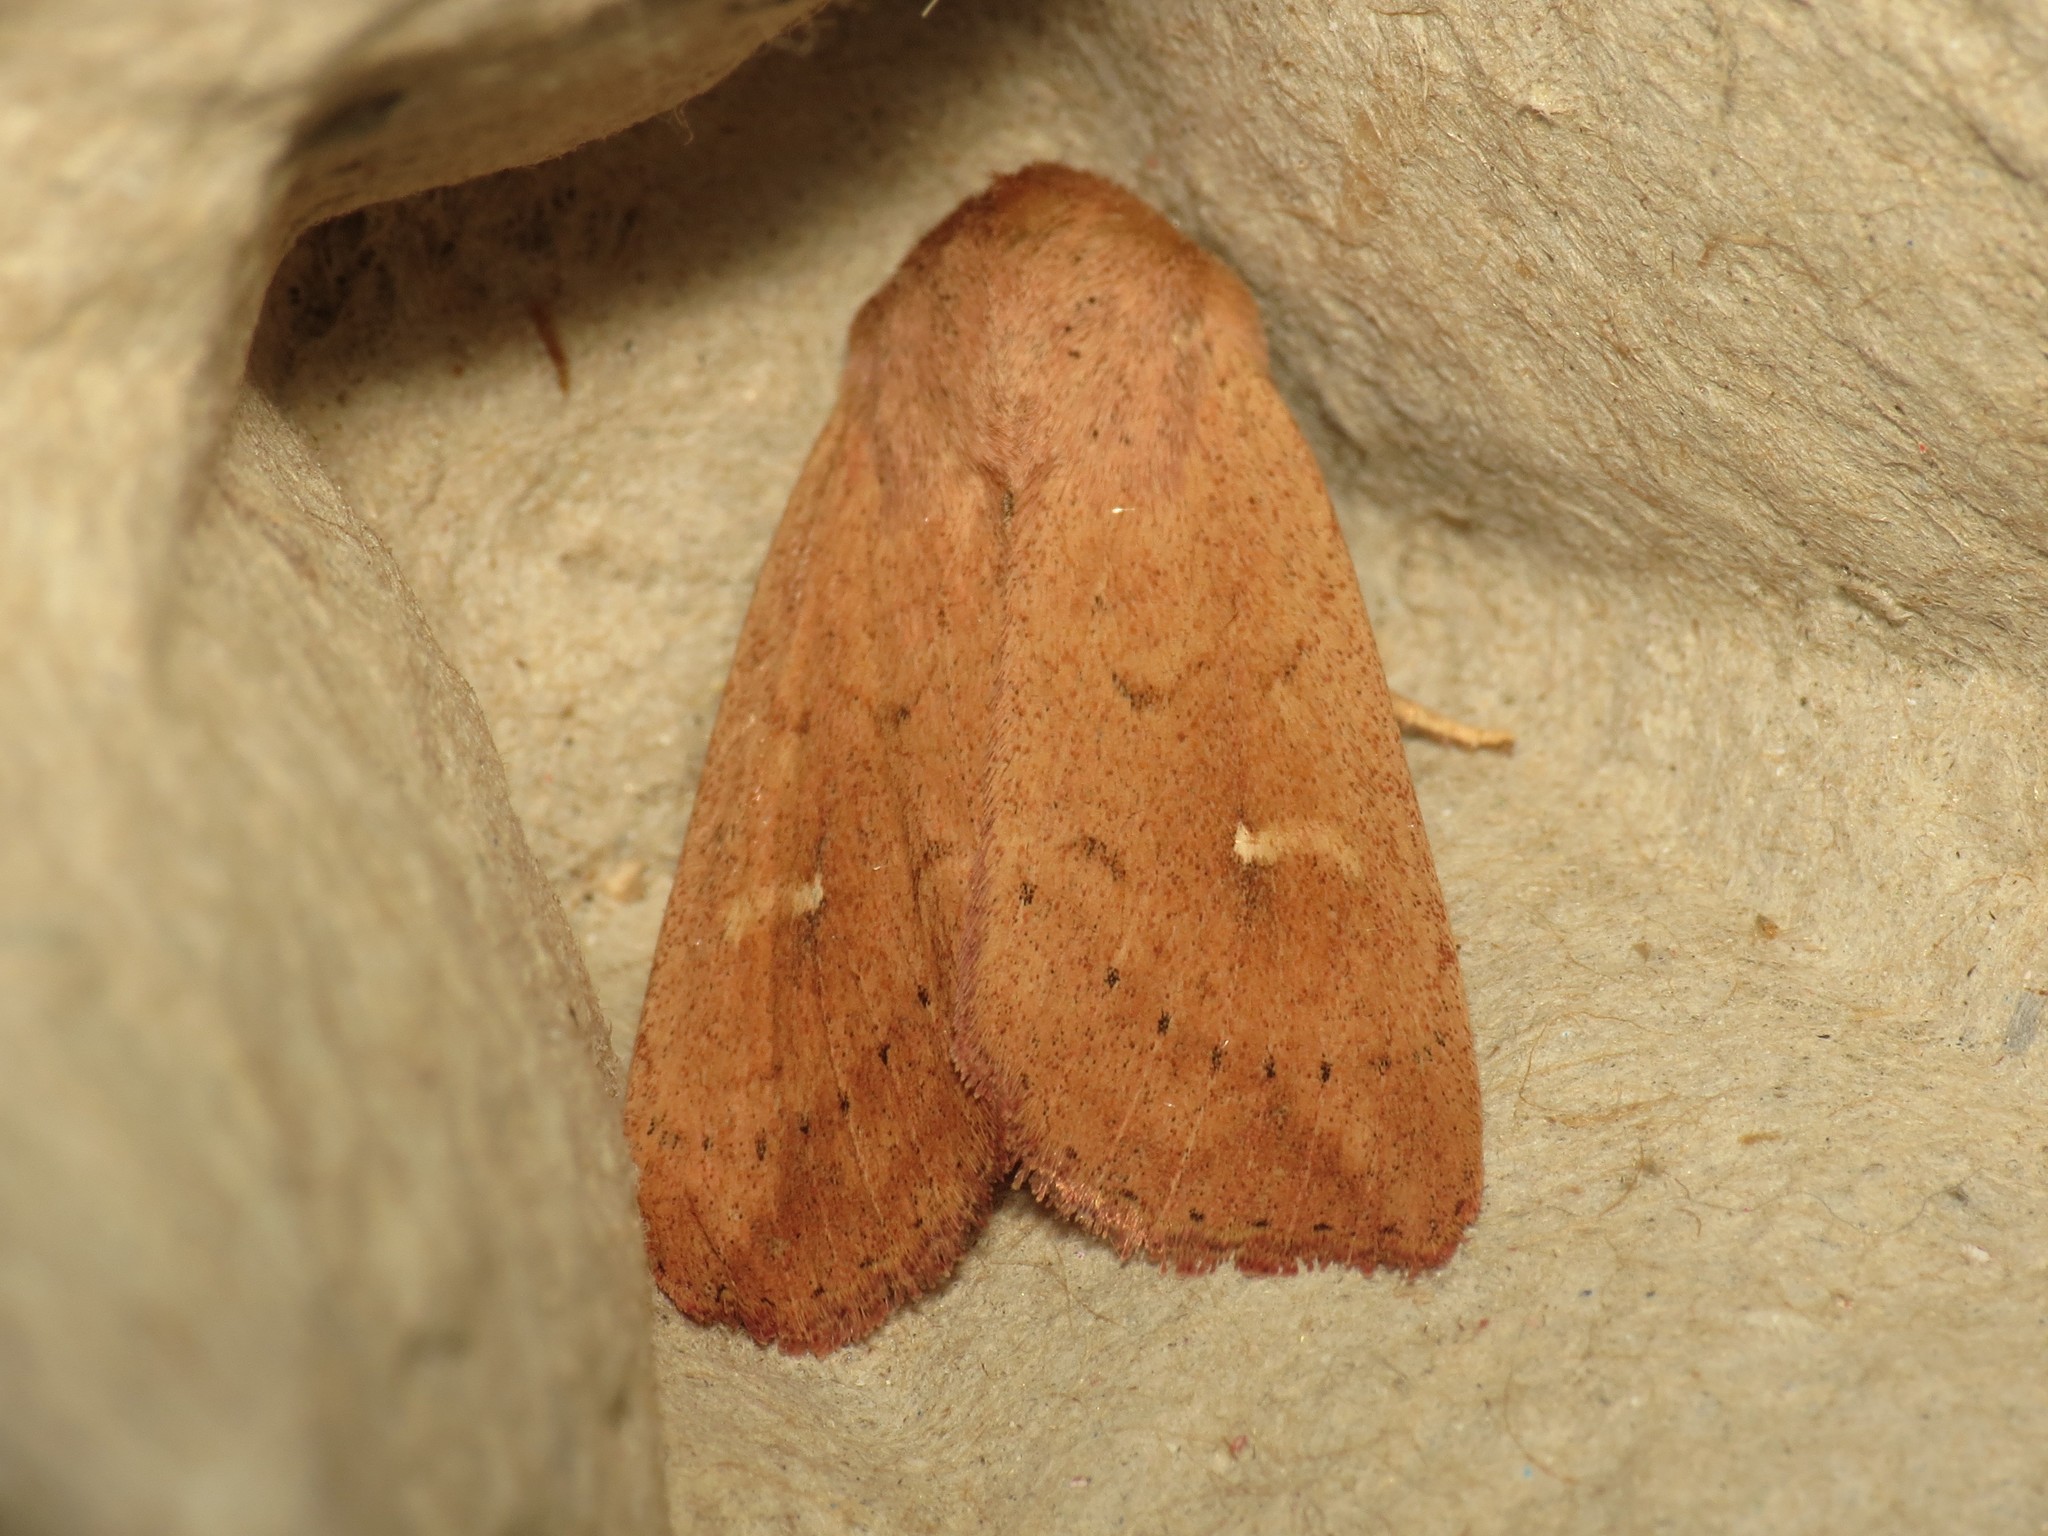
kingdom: Animalia
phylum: Arthropoda
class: Insecta
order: Lepidoptera
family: Noctuidae
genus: Mythimna
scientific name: Mythimna ferrago
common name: Clay
